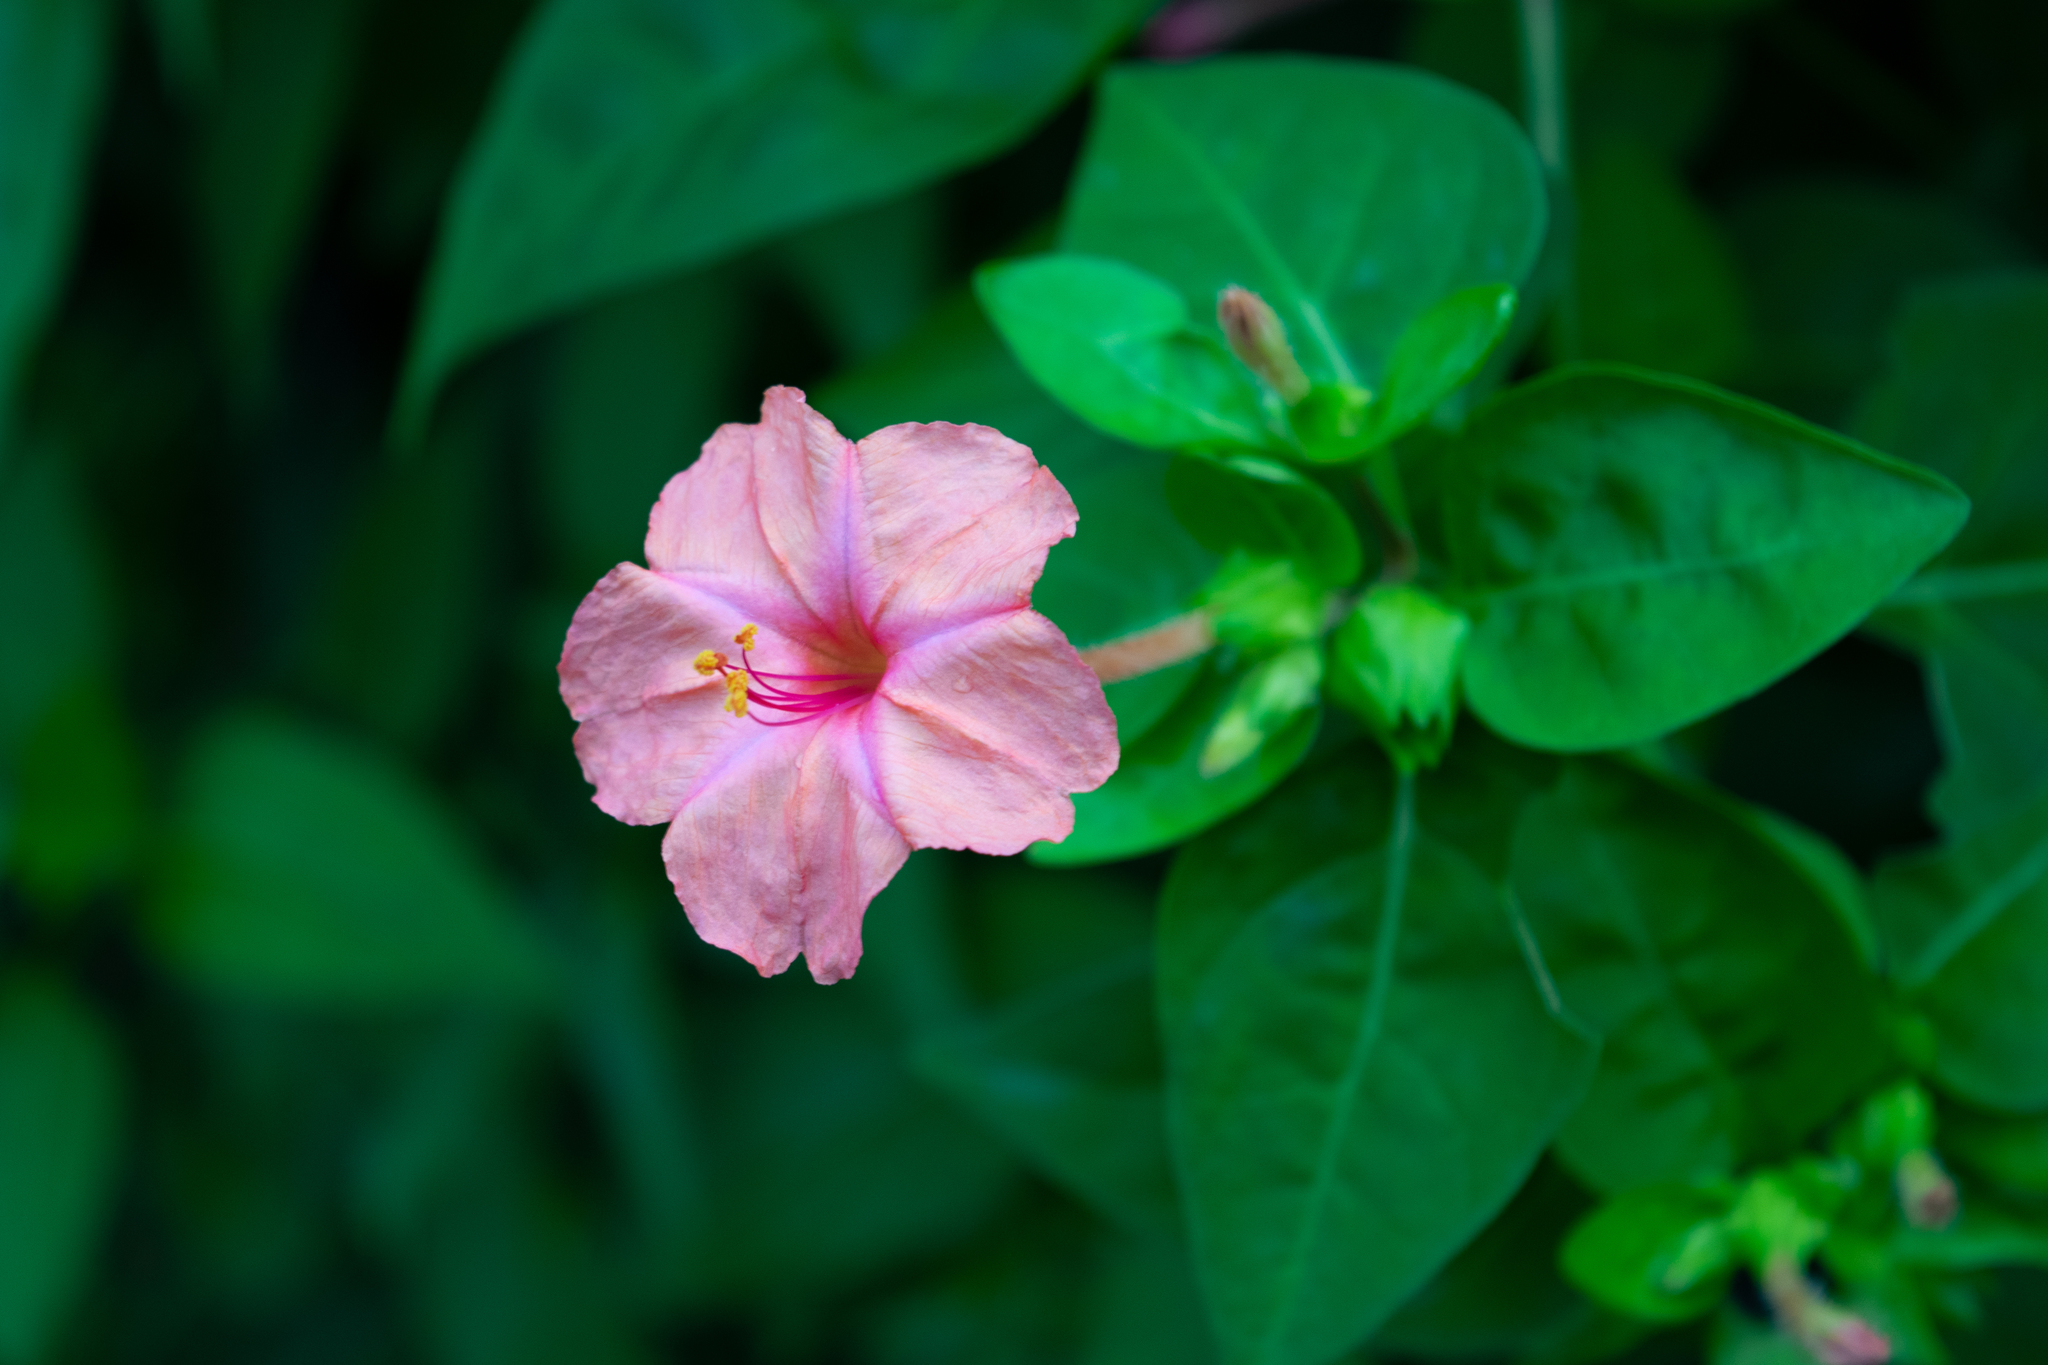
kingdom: Plantae
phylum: Tracheophyta
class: Magnoliopsida
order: Caryophyllales
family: Nyctaginaceae
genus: Mirabilis
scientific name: Mirabilis jalapa
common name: Marvel-of-peru
